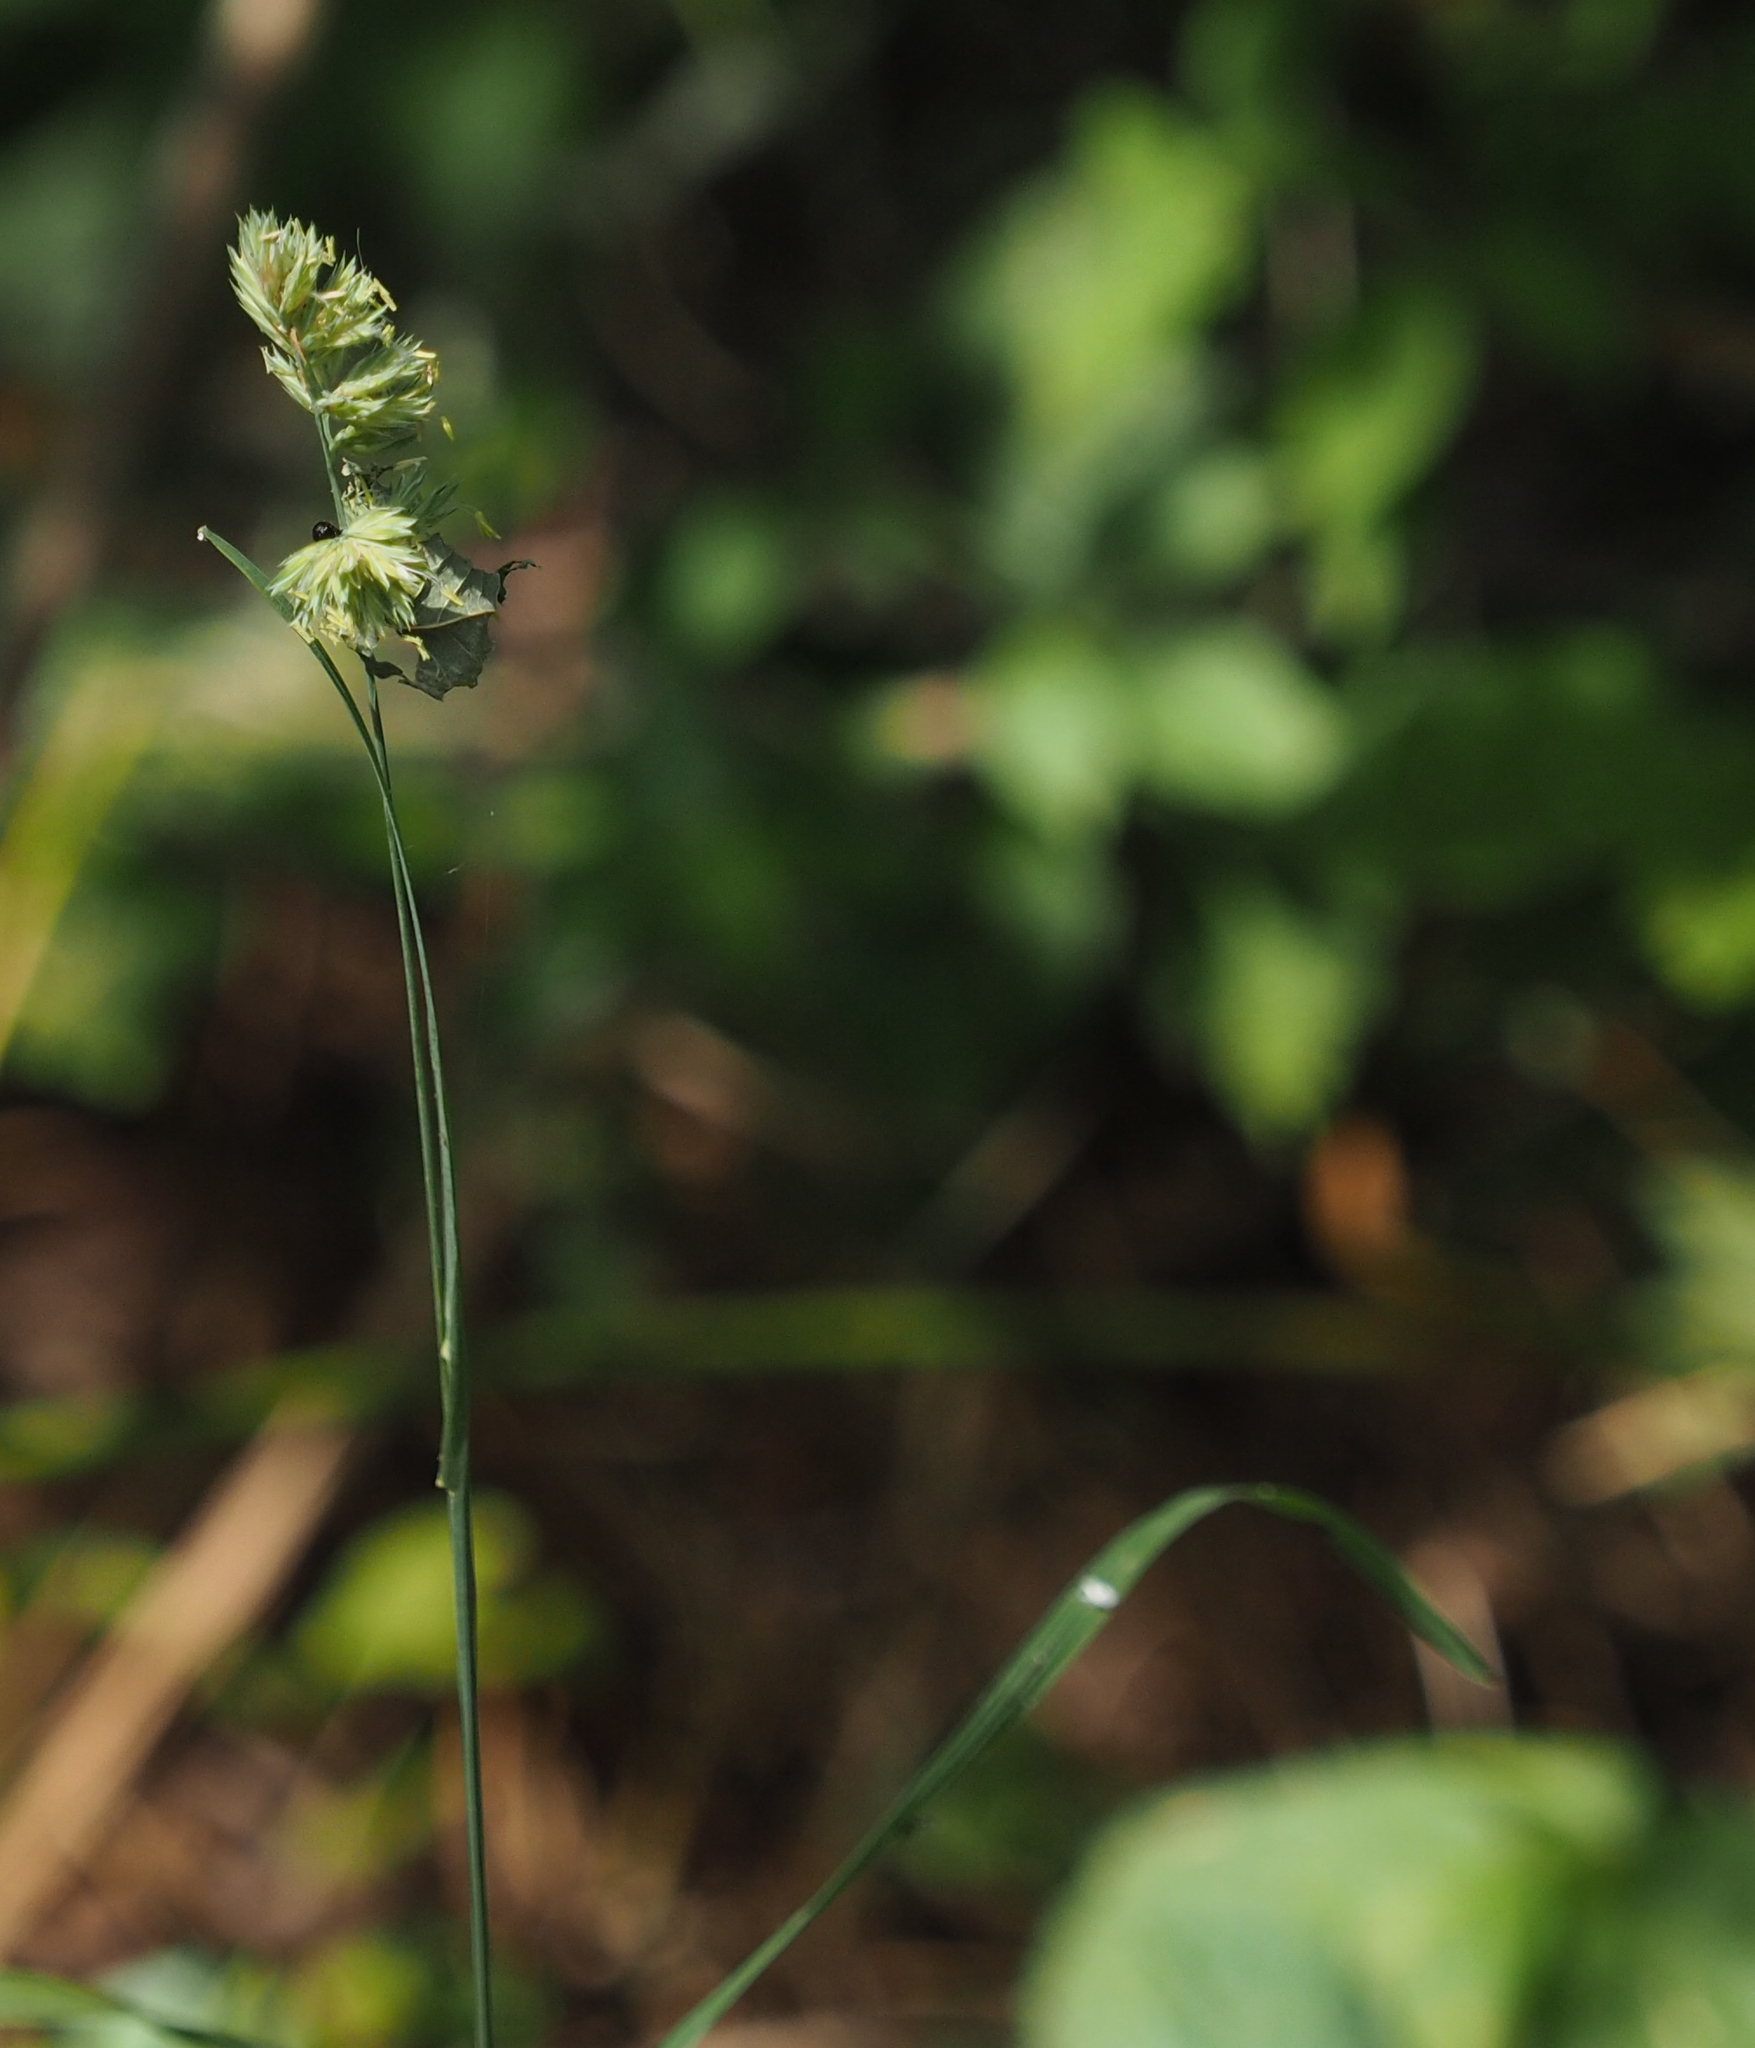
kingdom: Plantae
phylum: Tracheophyta
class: Liliopsida
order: Poales
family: Poaceae
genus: Dactylis
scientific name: Dactylis glomerata
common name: Orchardgrass
